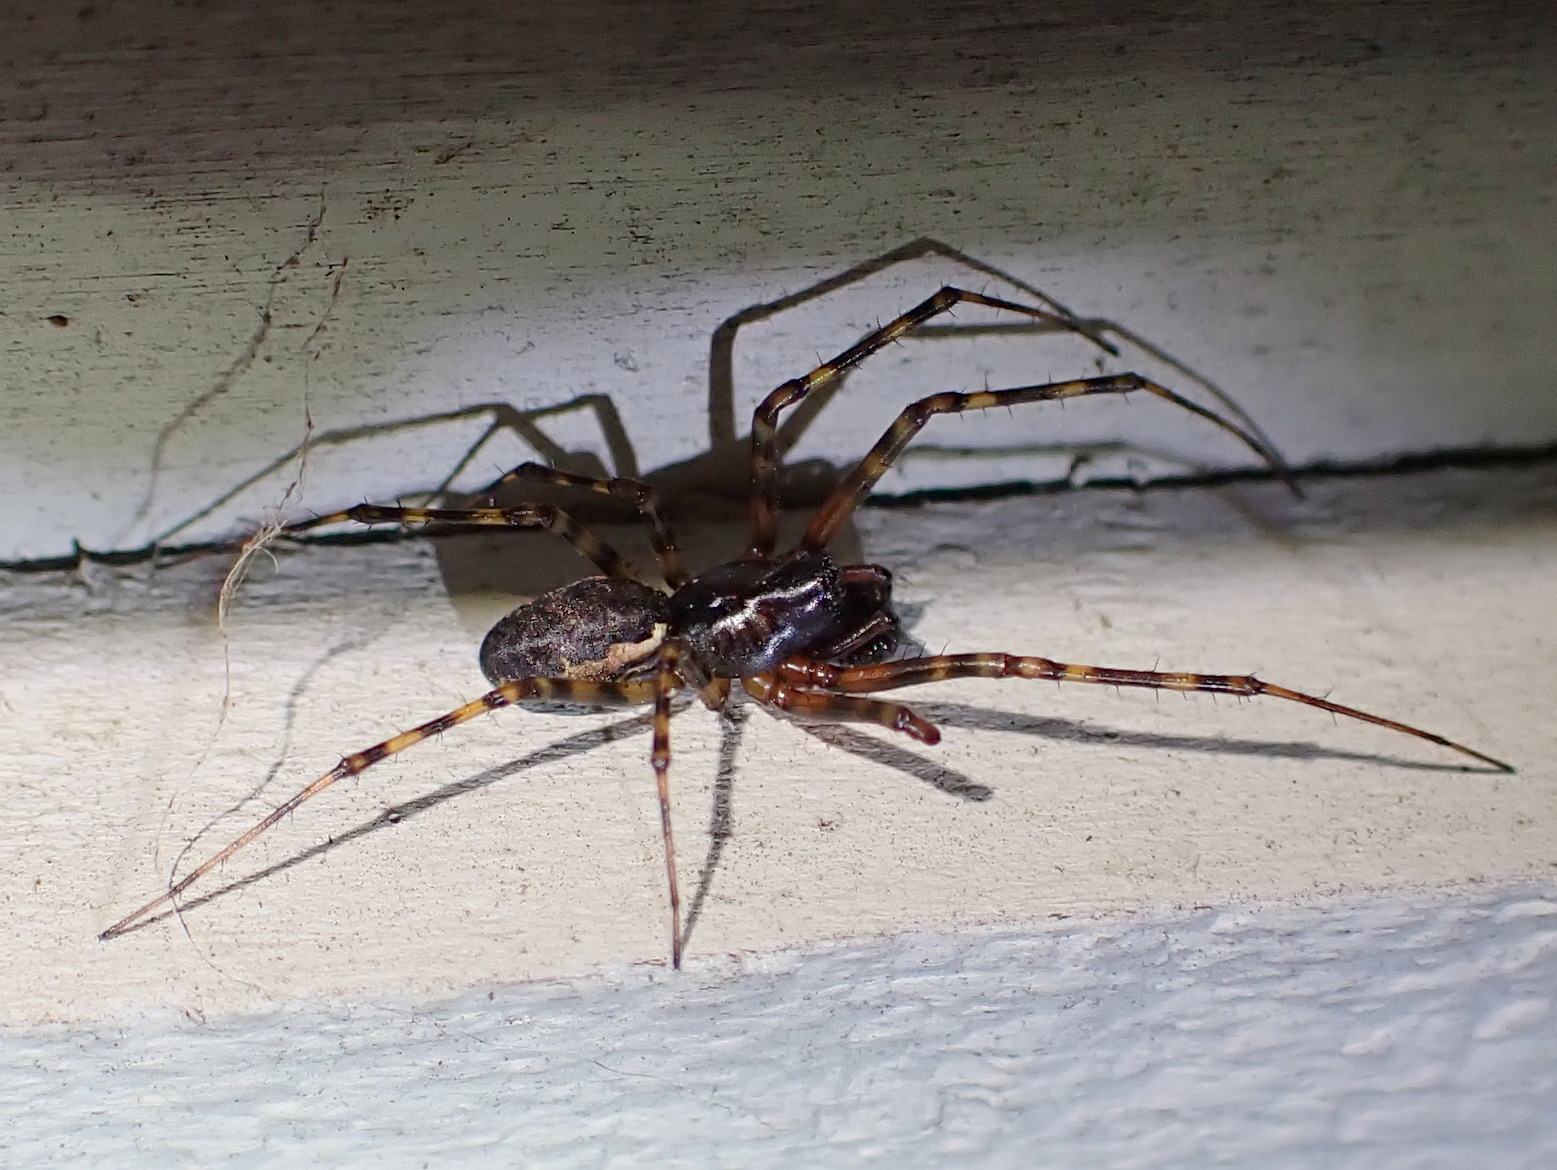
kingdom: Animalia
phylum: Arthropoda
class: Arachnida
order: Araneae
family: Linyphiidae
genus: Neriene
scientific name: Neriene montana
